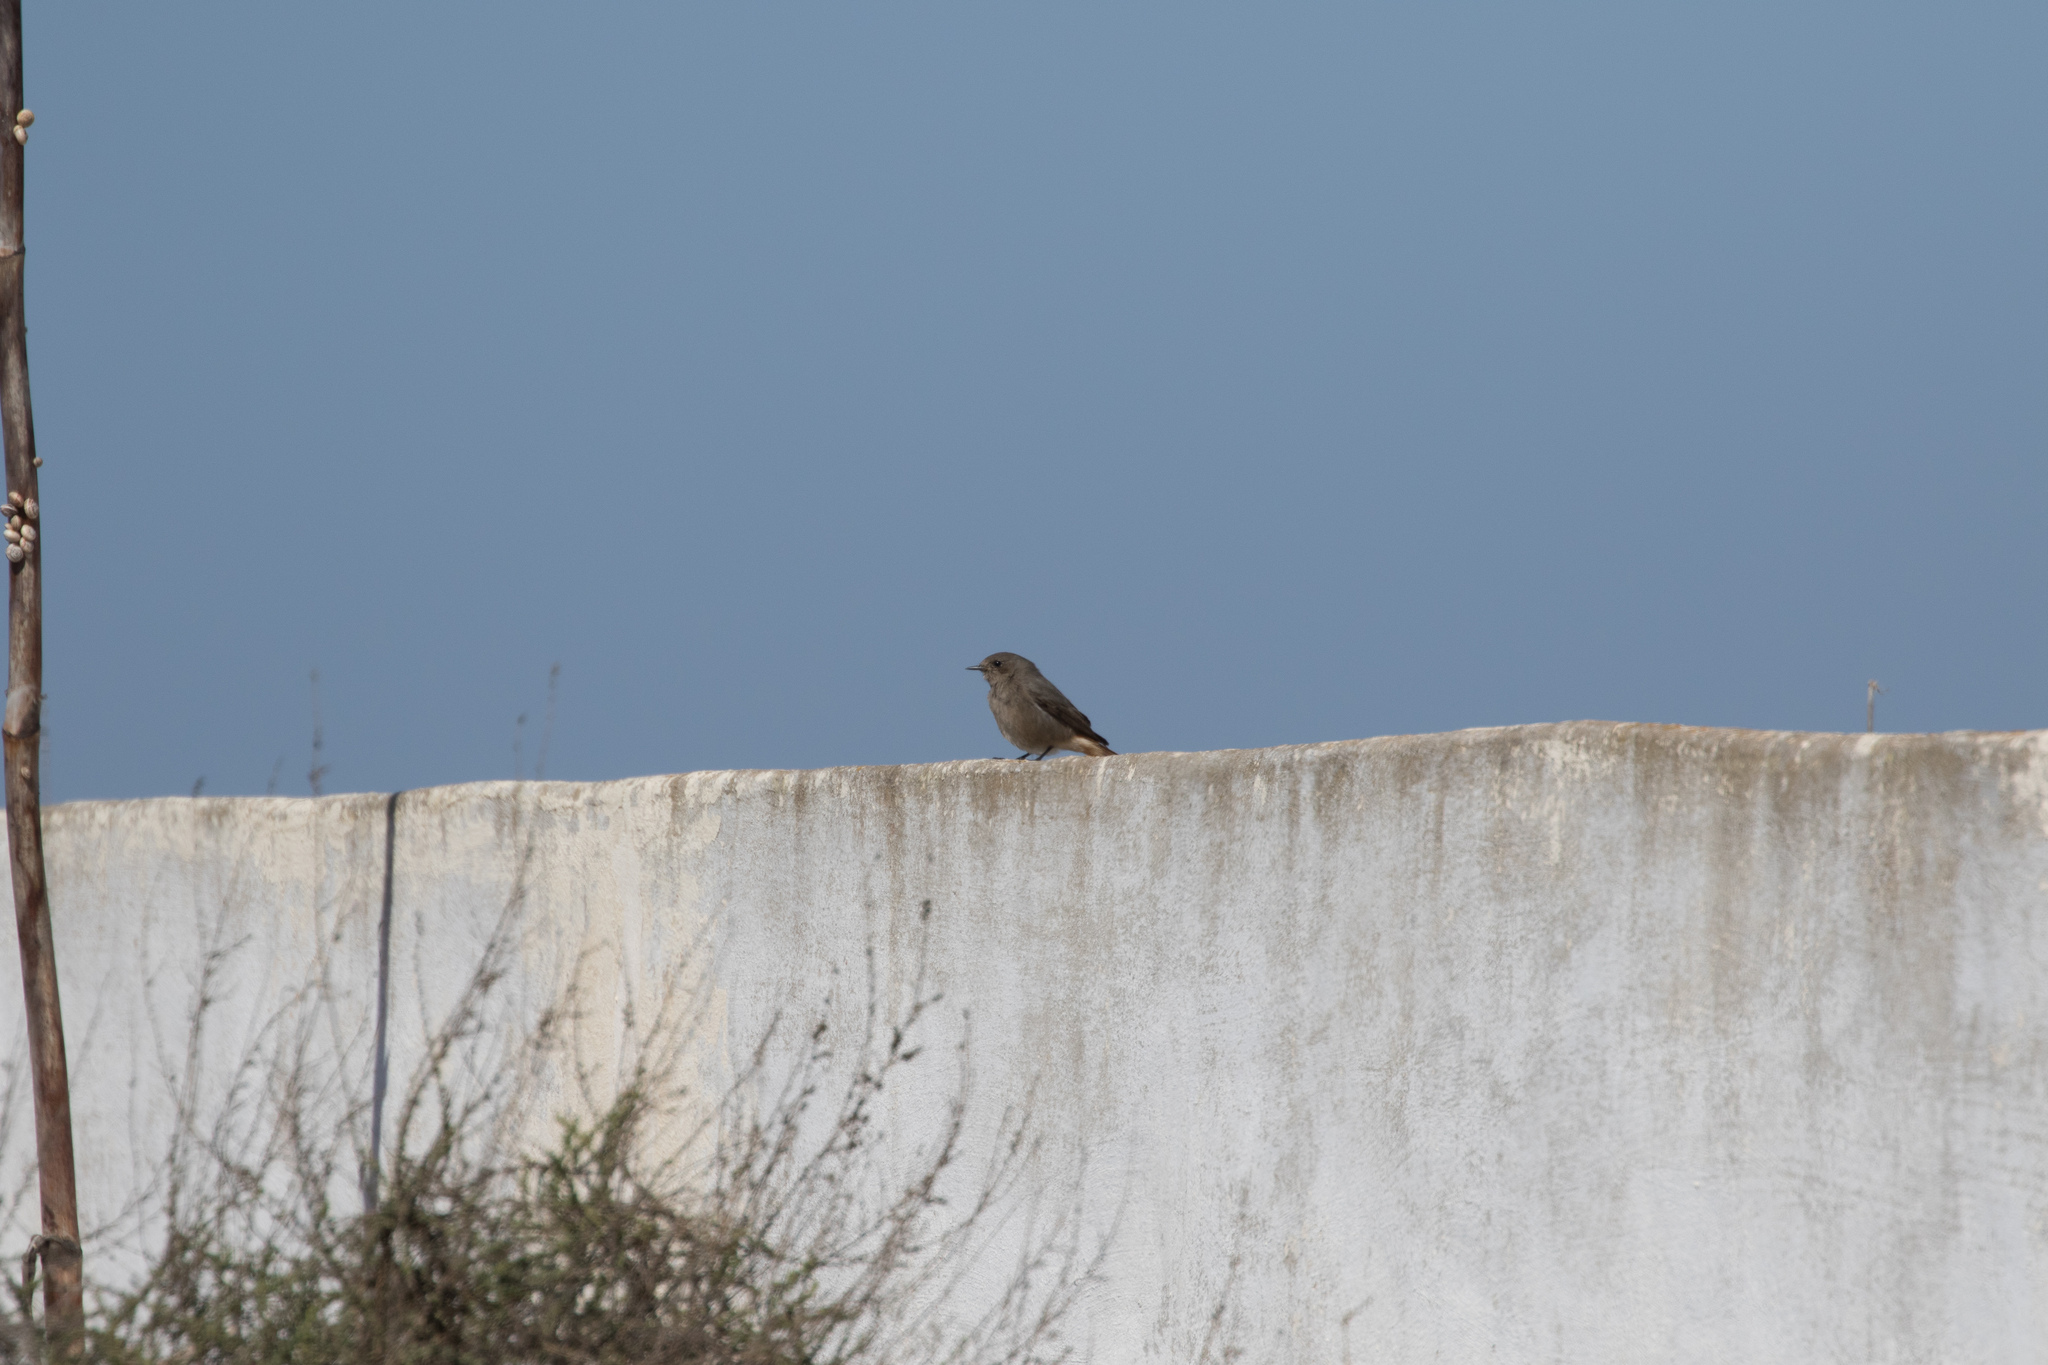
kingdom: Animalia
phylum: Chordata
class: Aves
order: Passeriformes
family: Muscicapidae
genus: Phoenicurus
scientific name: Phoenicurus ochruros
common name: Black redstart
